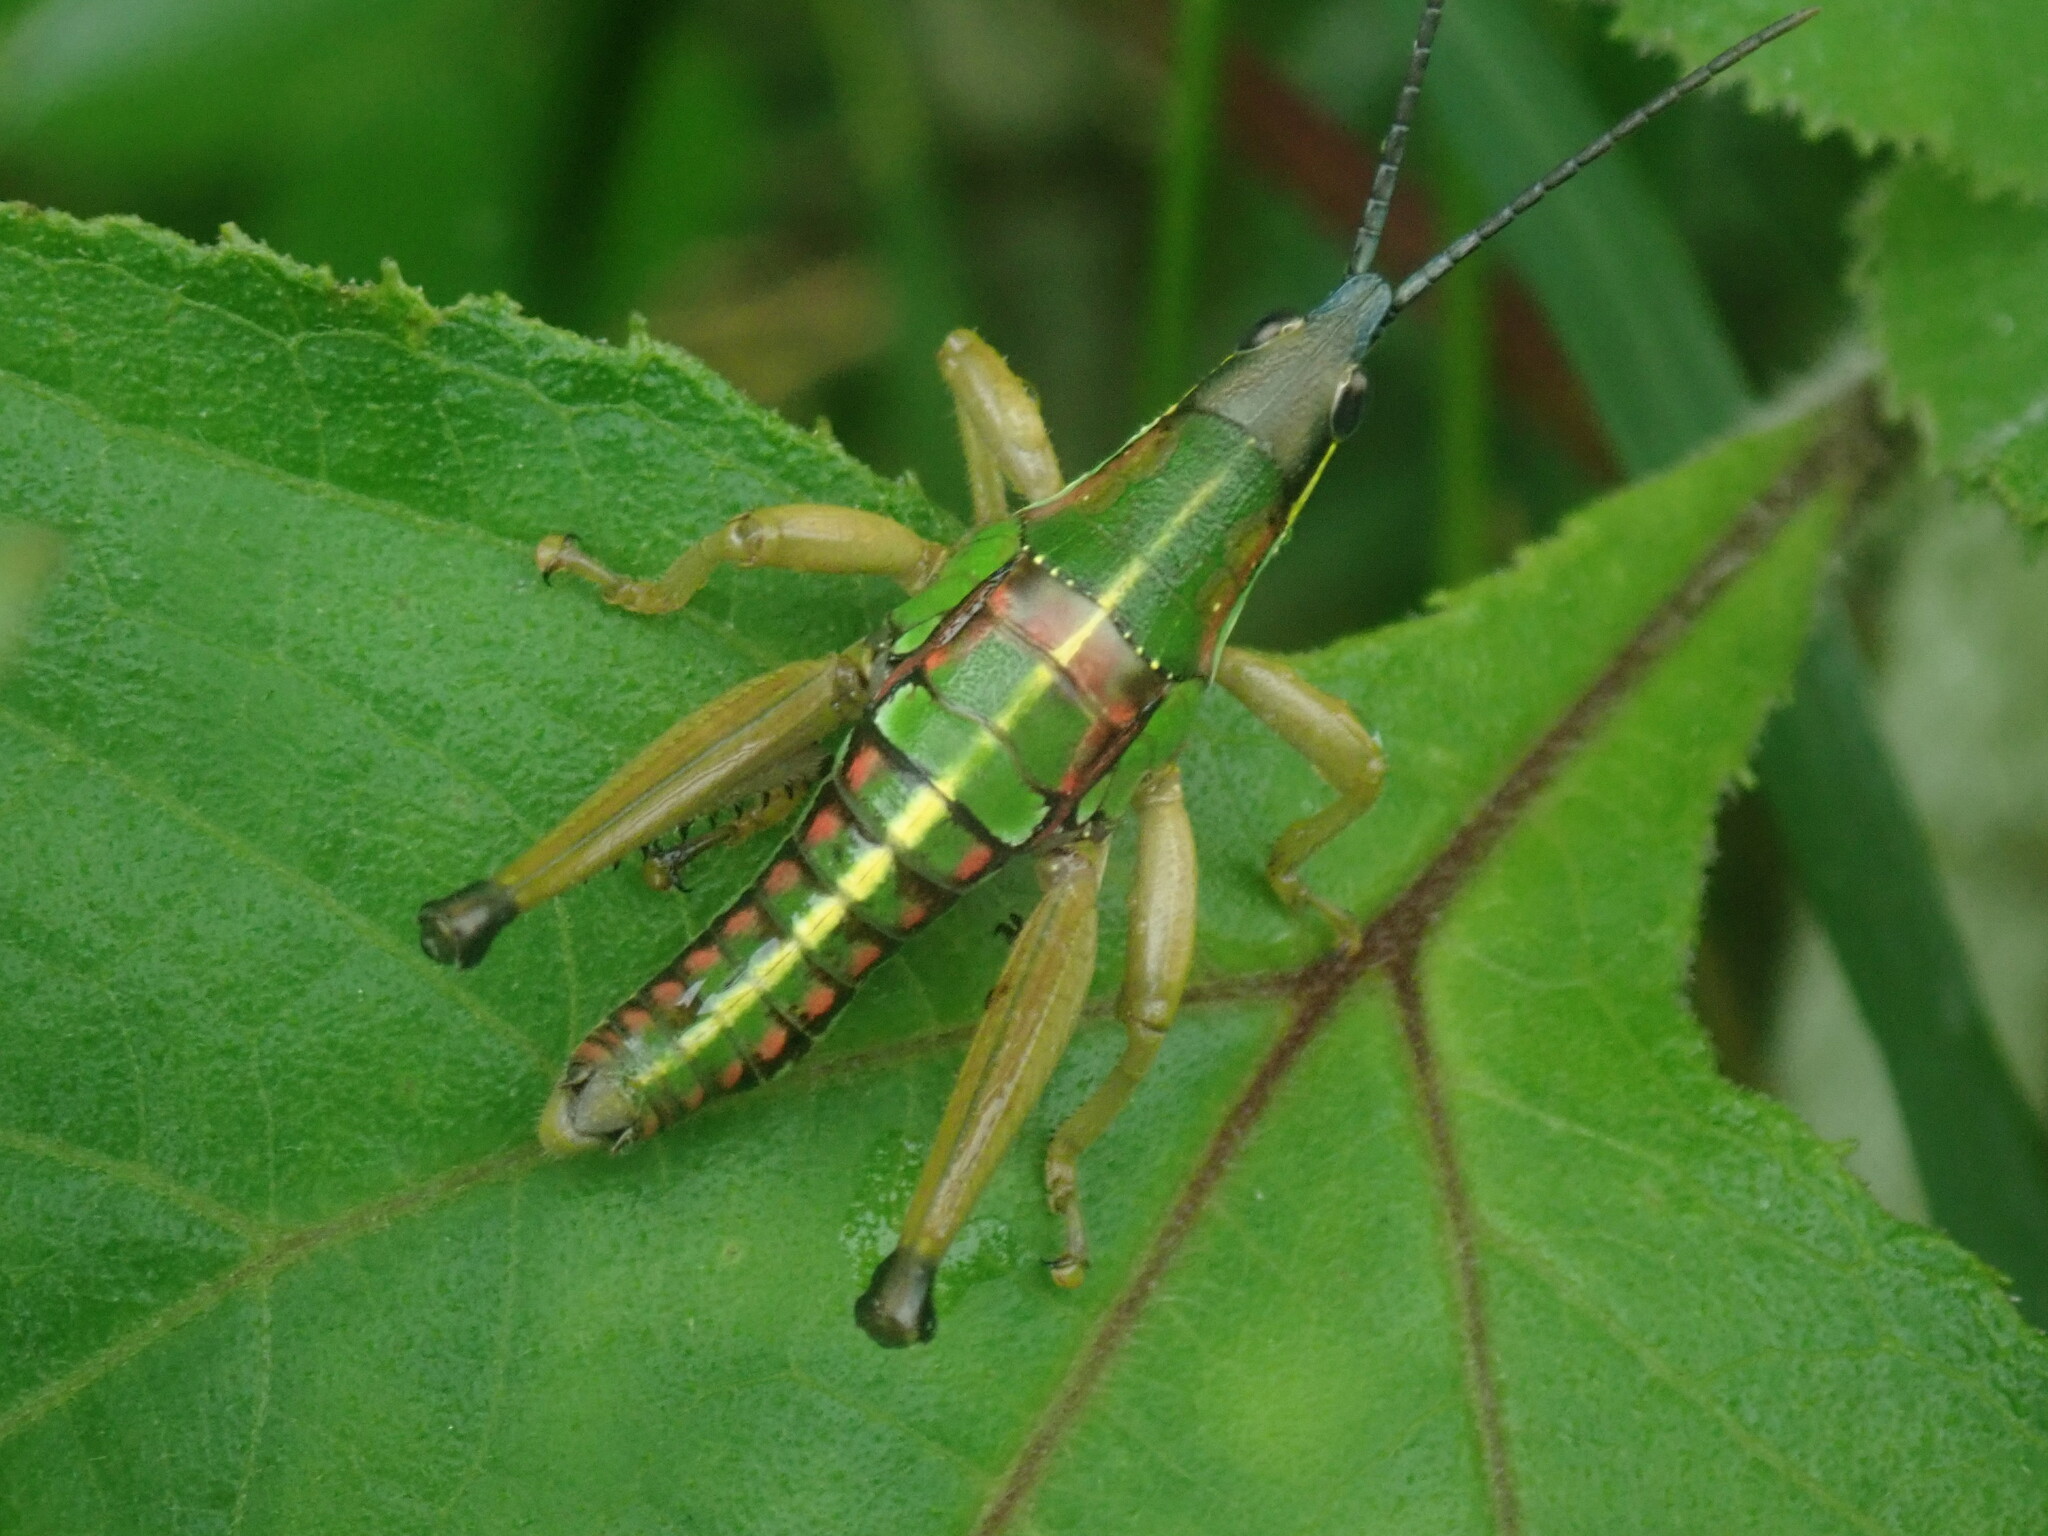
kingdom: Animalia
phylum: Arthropoda
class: Insecta
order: Orthoptera
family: Pyrgomorphidae
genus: Sphenarium
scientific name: Sphenarium mexicanum
